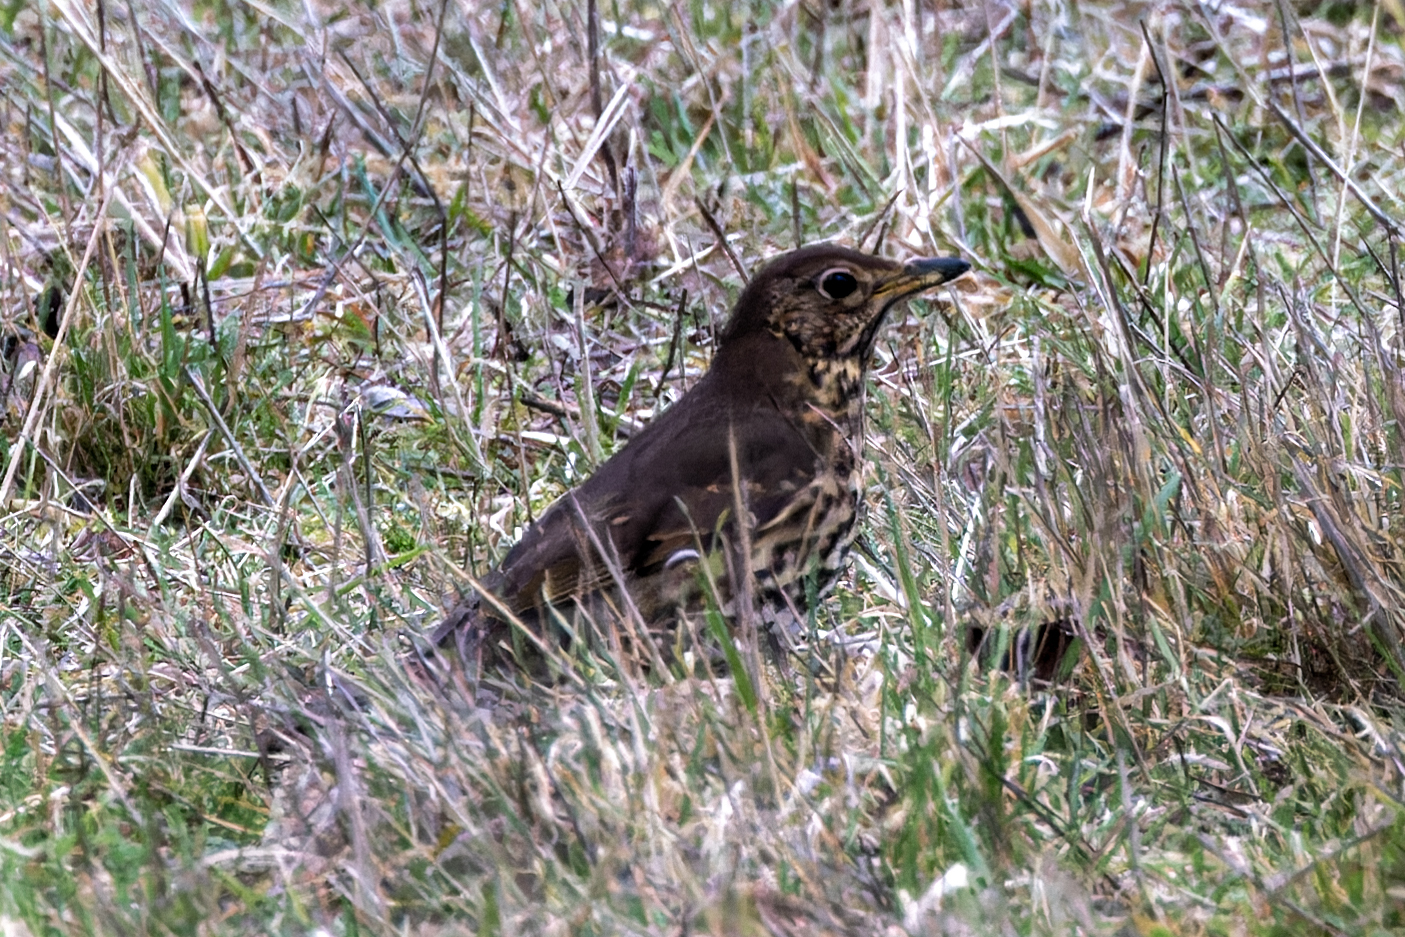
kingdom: Animalia
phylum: Chordata
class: Aves
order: Passeriformes
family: Turdidae
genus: Turdus
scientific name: Turdus philomelos
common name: Song thrush
